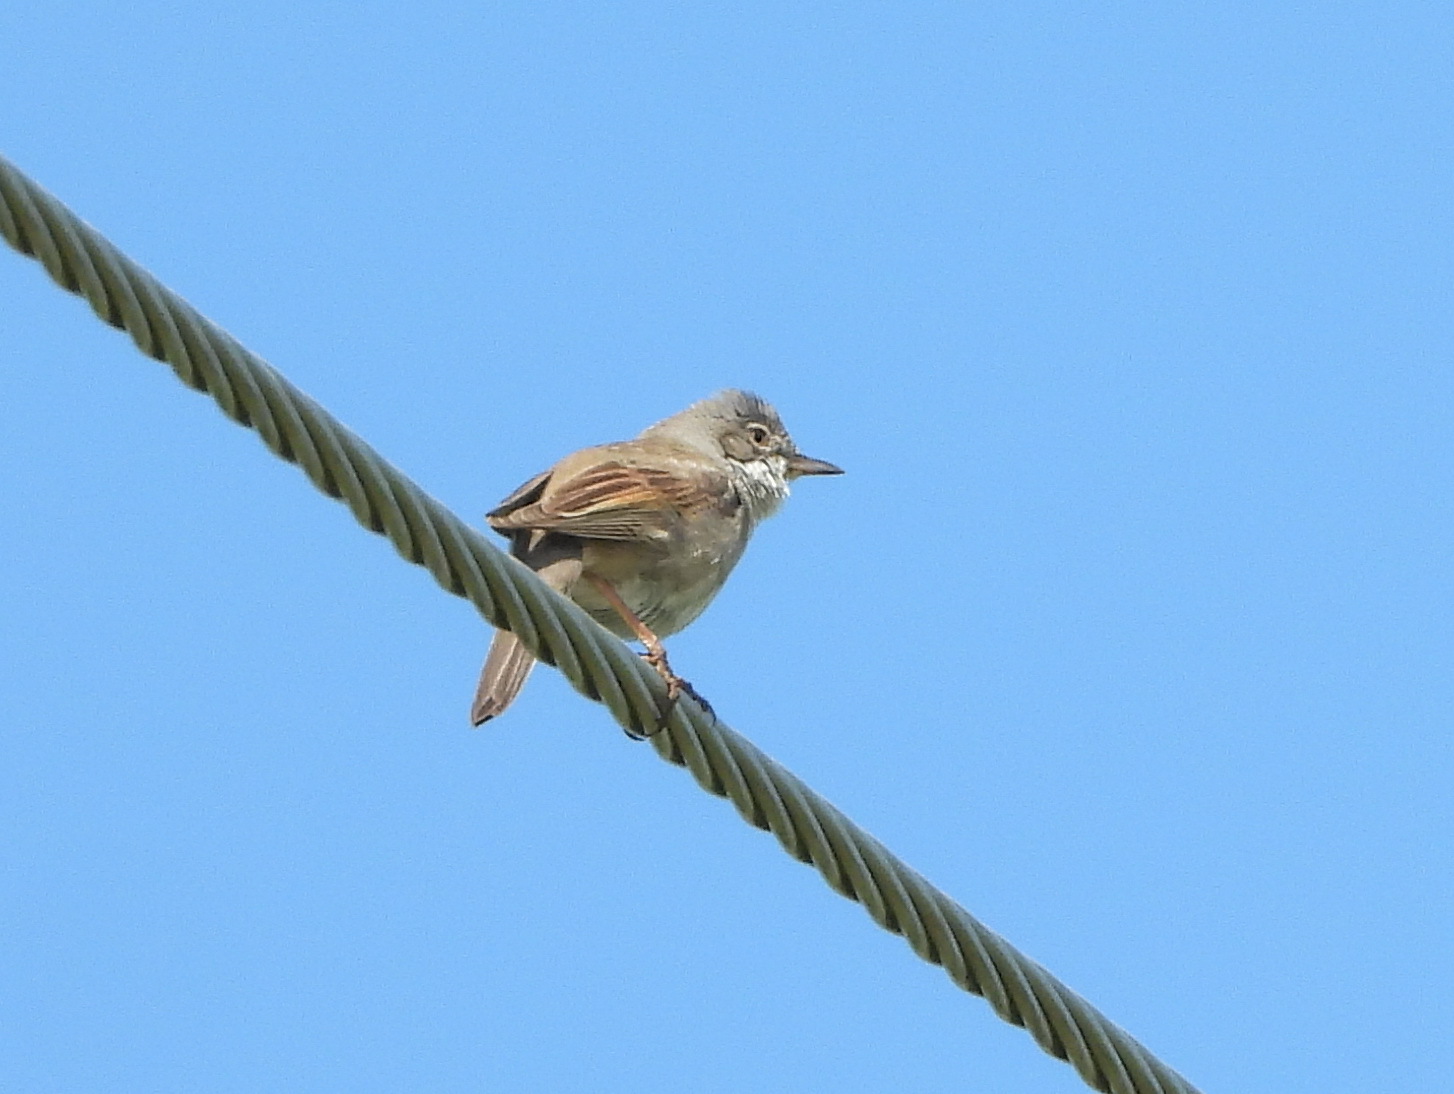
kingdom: Animalia
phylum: Chordata
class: Aves
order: Passeriformes
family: Sylviidae
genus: Sylvia
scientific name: Sylvia communis
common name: Common whitethroat
